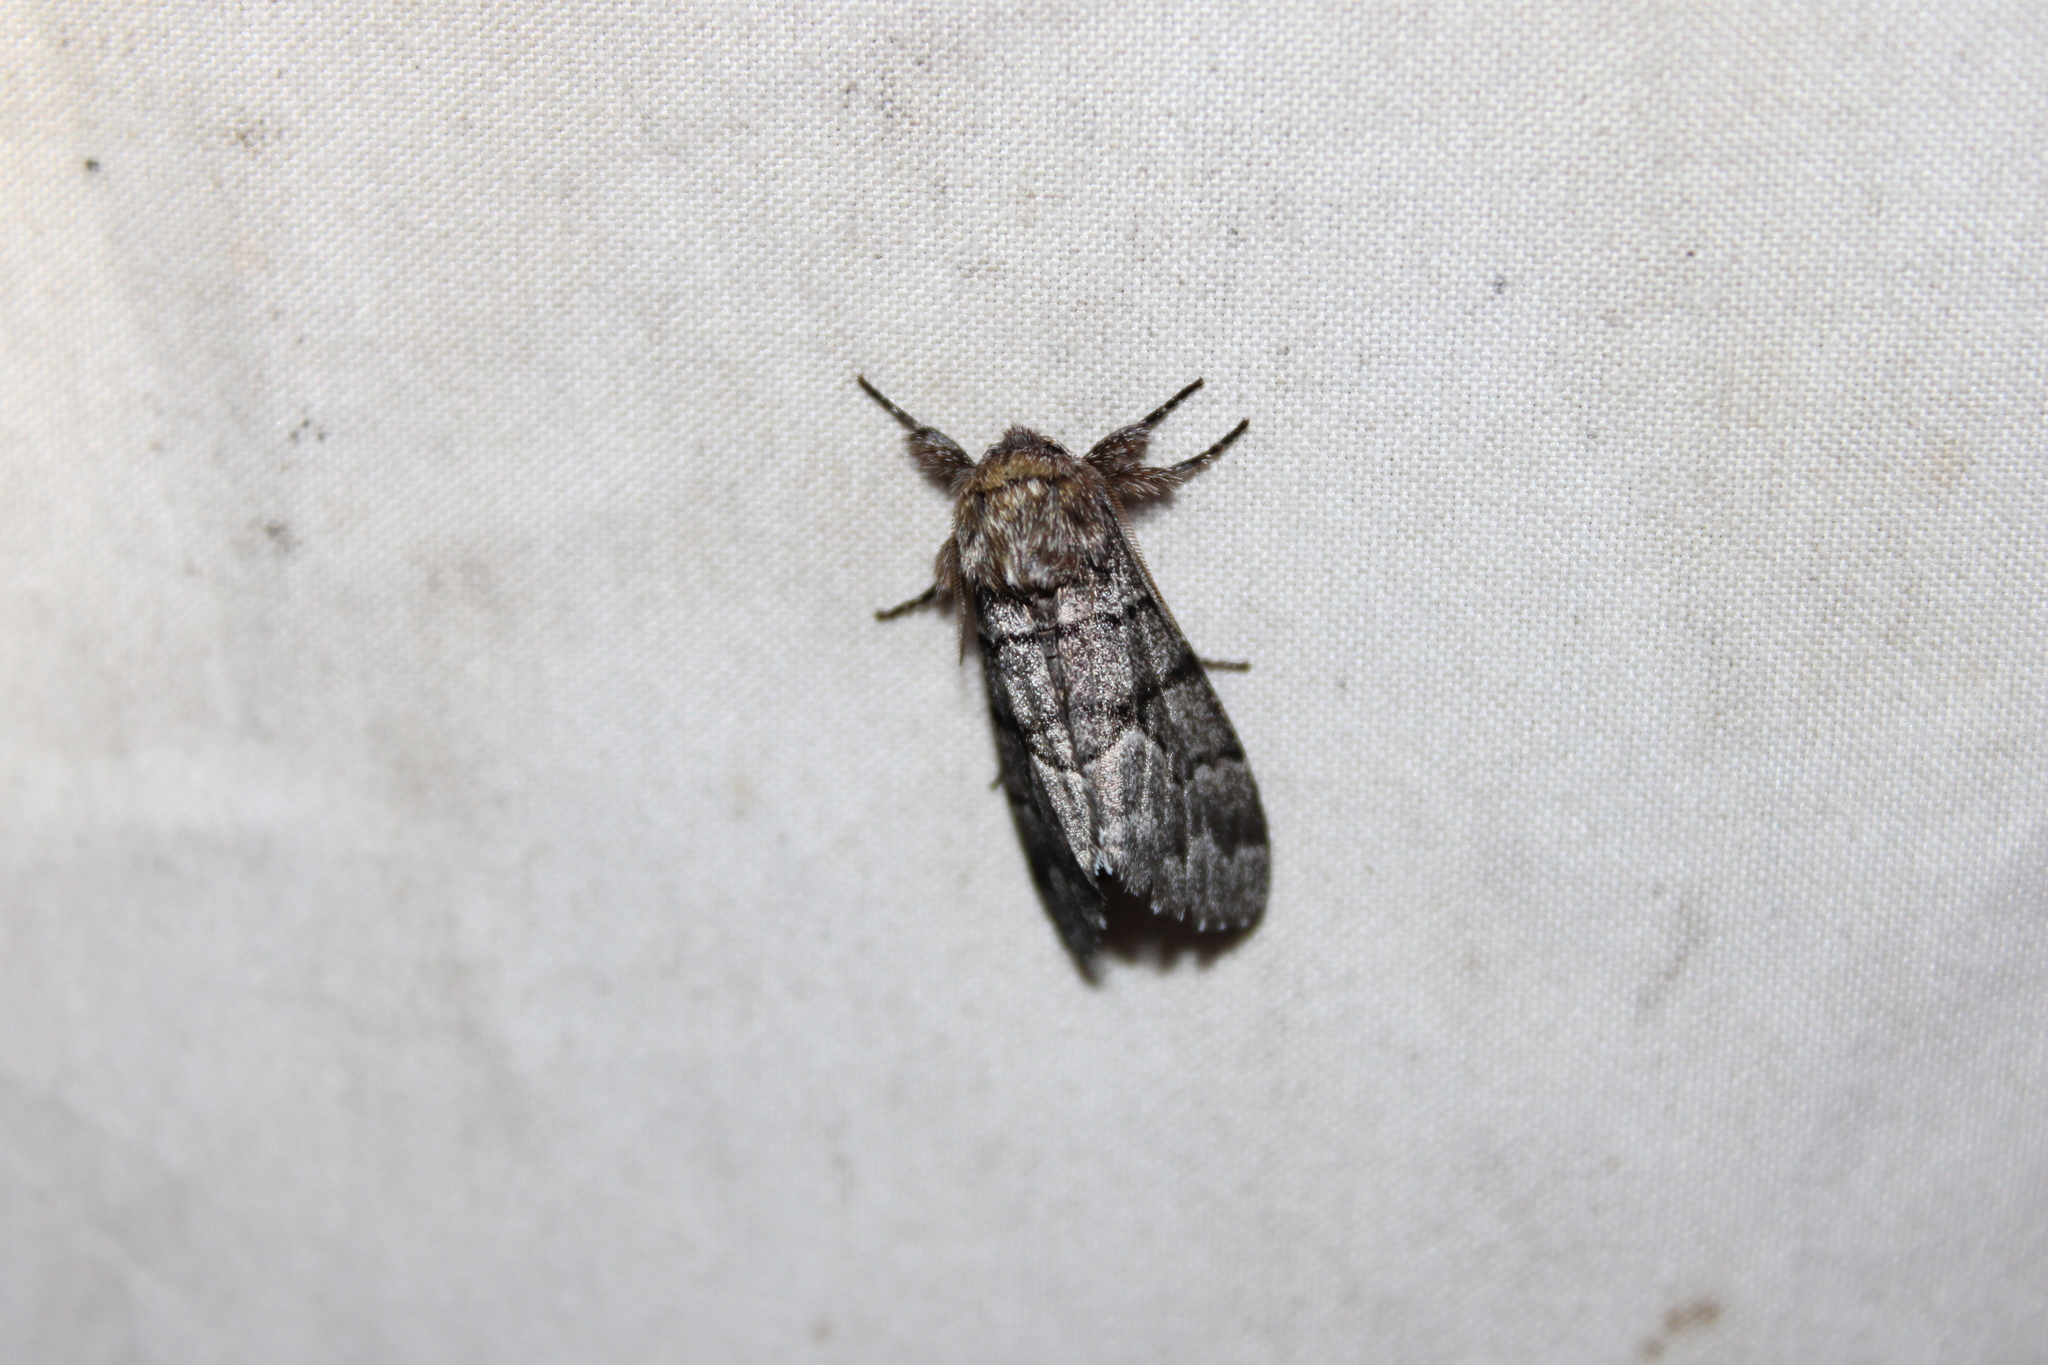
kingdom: Animalia
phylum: Arthropoda
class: Insecta
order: Lepidoptera
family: Noctuidae
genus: Panthea
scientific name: Panthea furcilla
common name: Eastern panthea moth
